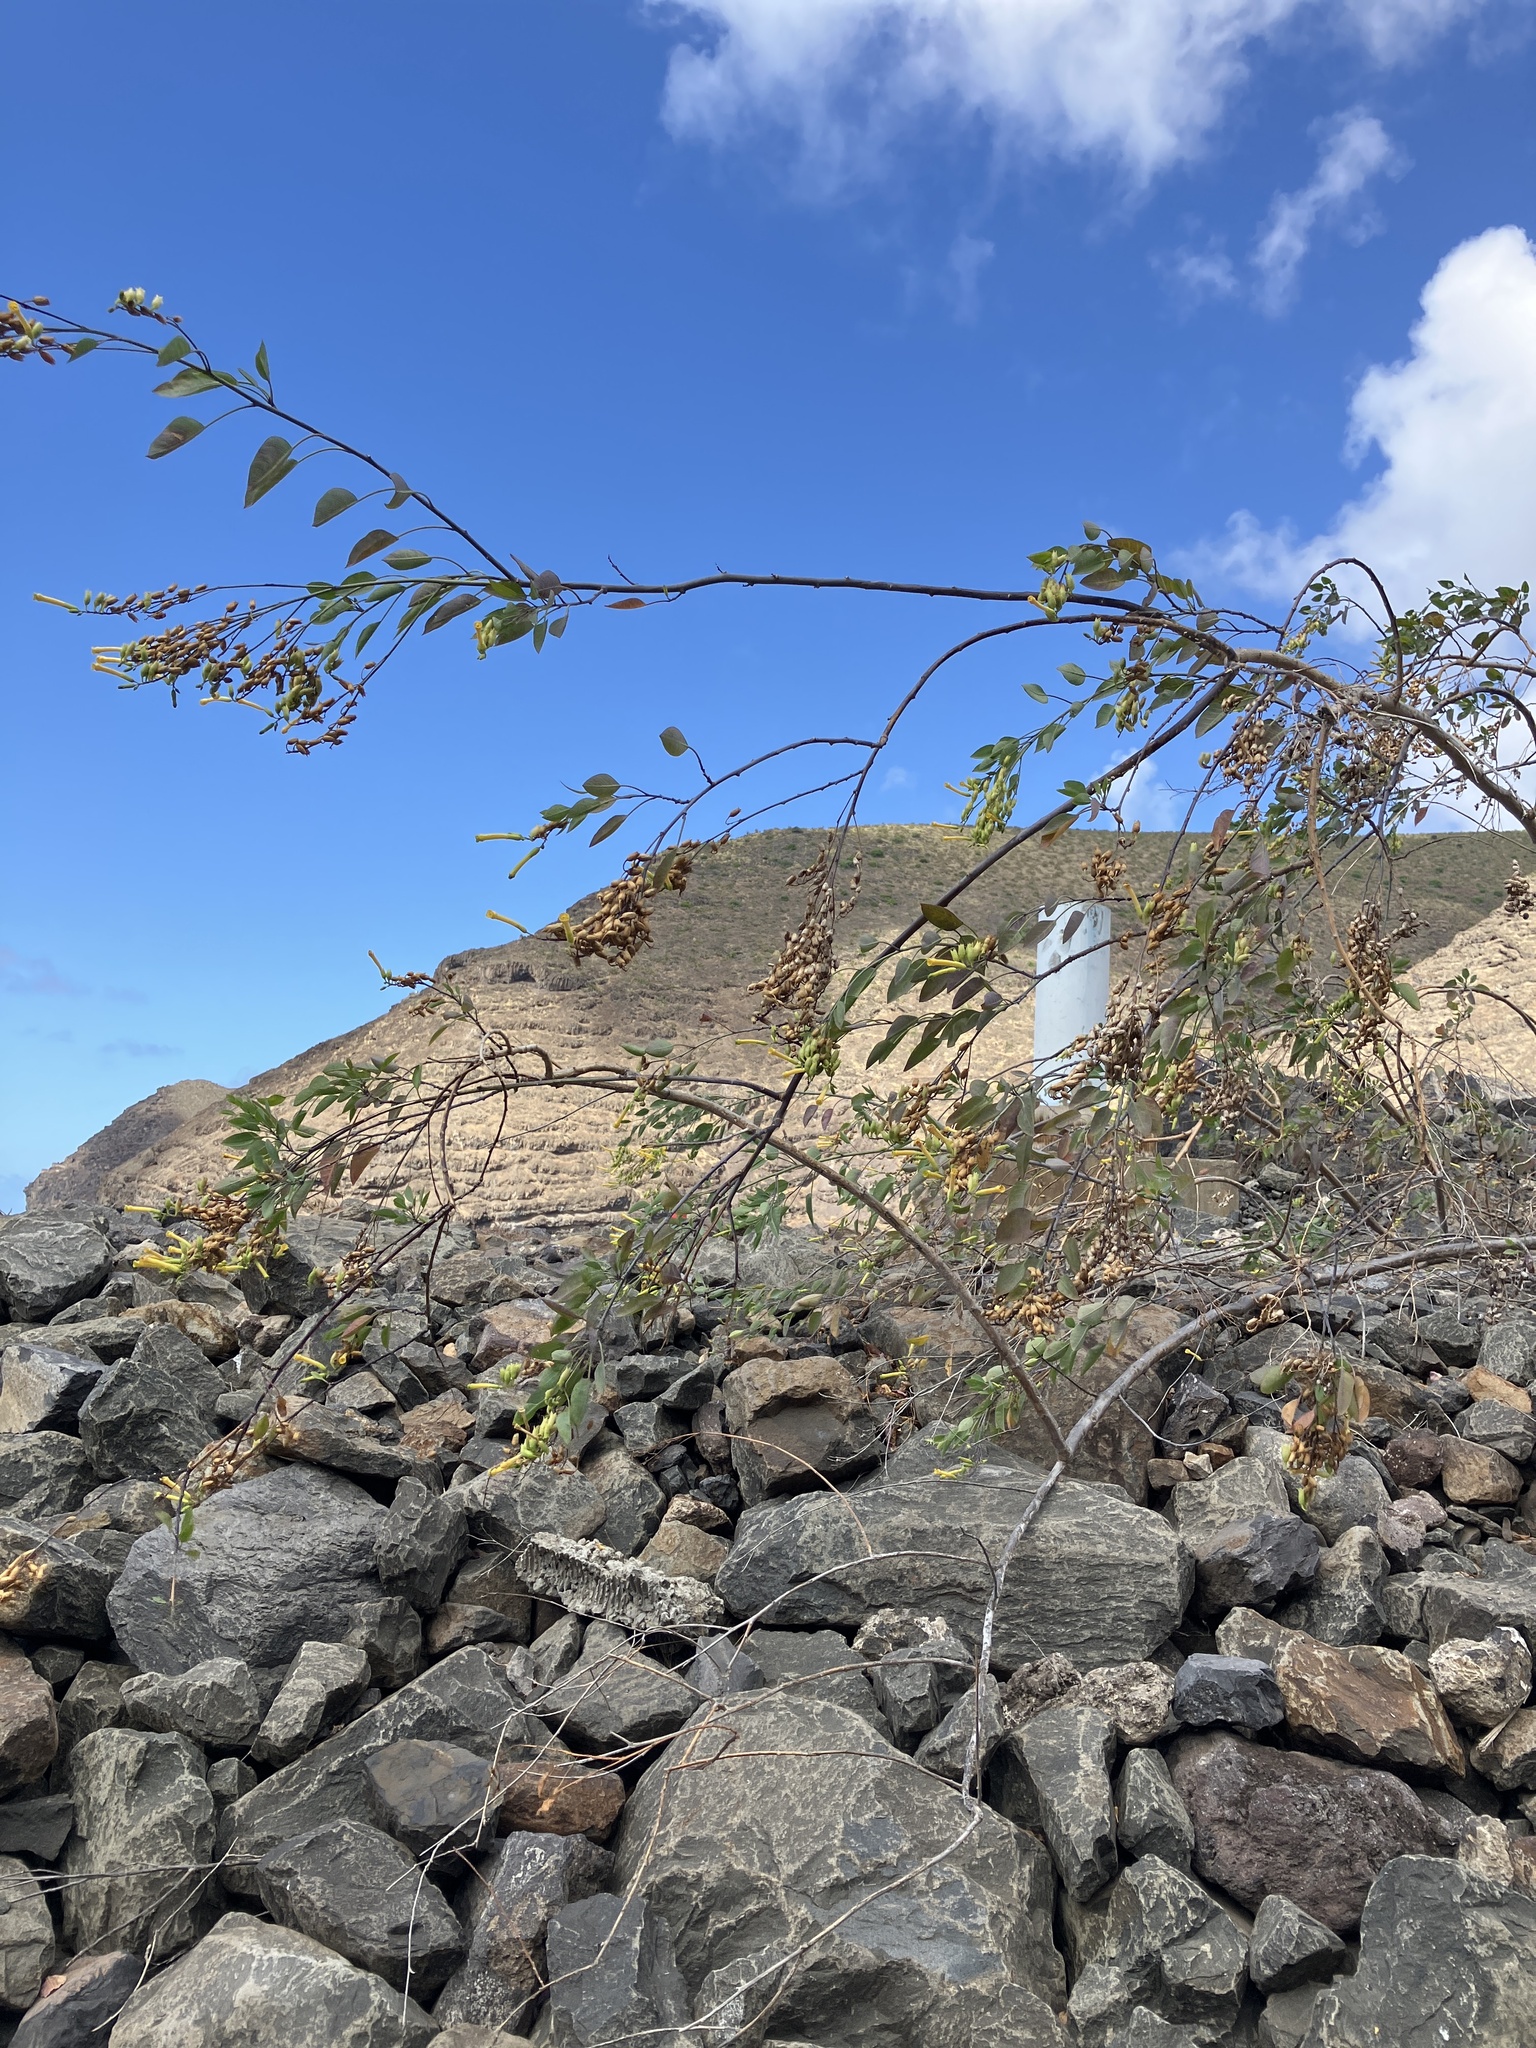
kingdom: Plantae
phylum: Tracheophyta
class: Magnoliopsida
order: Solanales
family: Solanaceae
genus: Nicotiana
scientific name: Nicotiana glauca
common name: Tree tobacco
